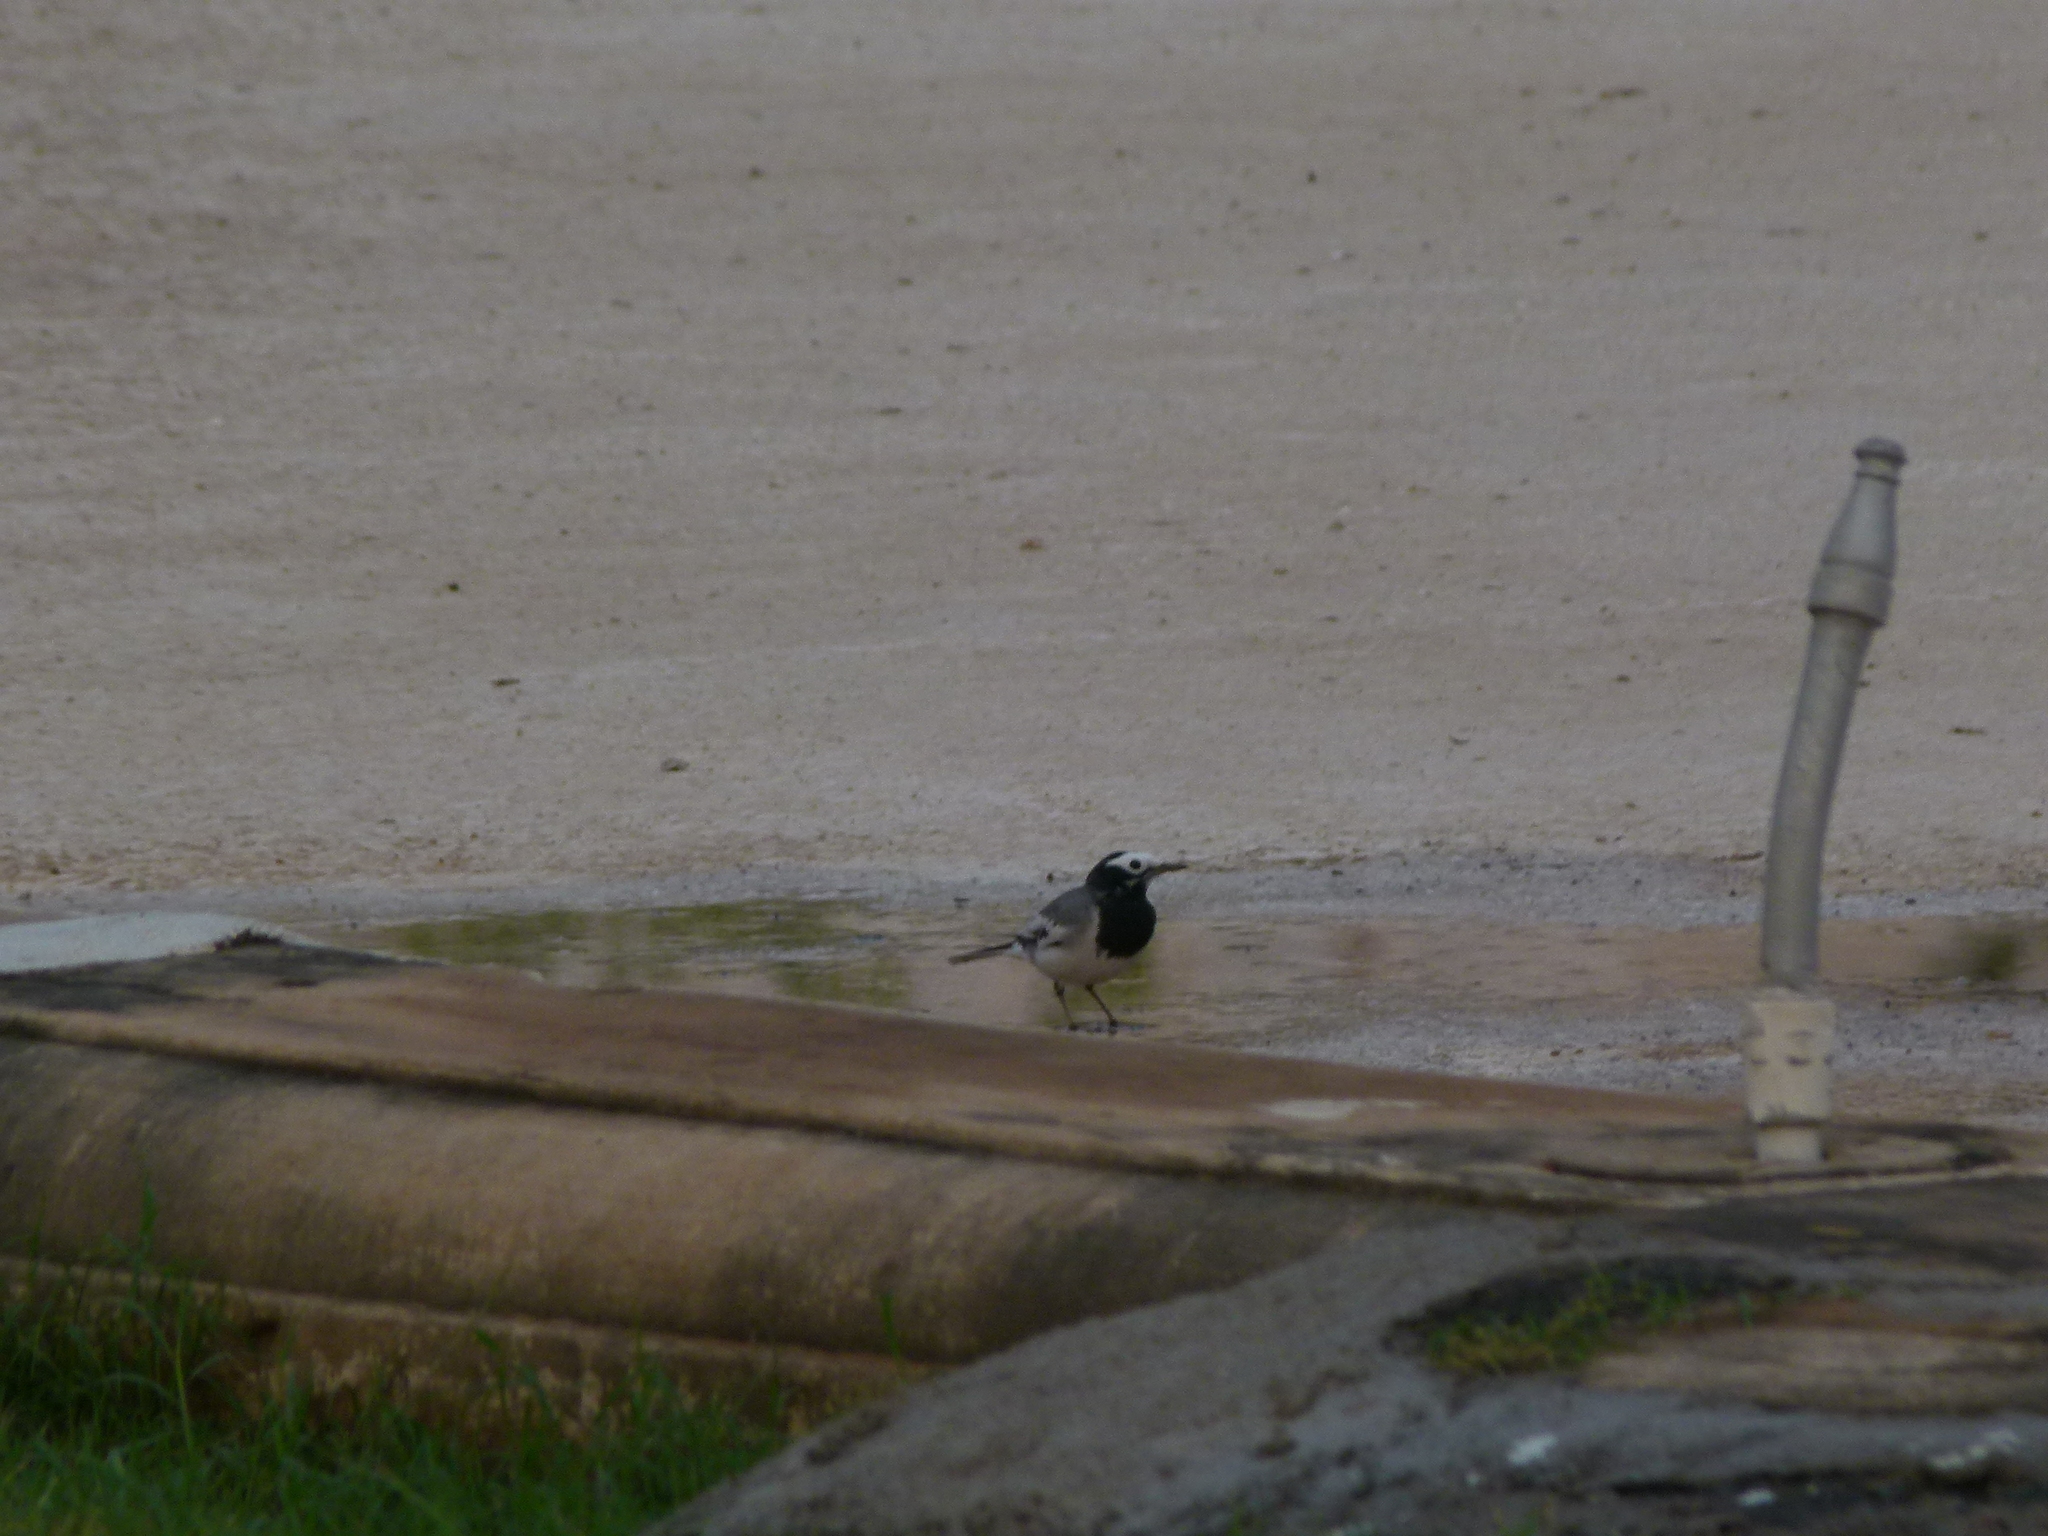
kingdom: Animalia
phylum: Chordata
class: Aves
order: Passeriformes
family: Motacillidae
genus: Motacilla
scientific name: Motacilla alba
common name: White wagtail
